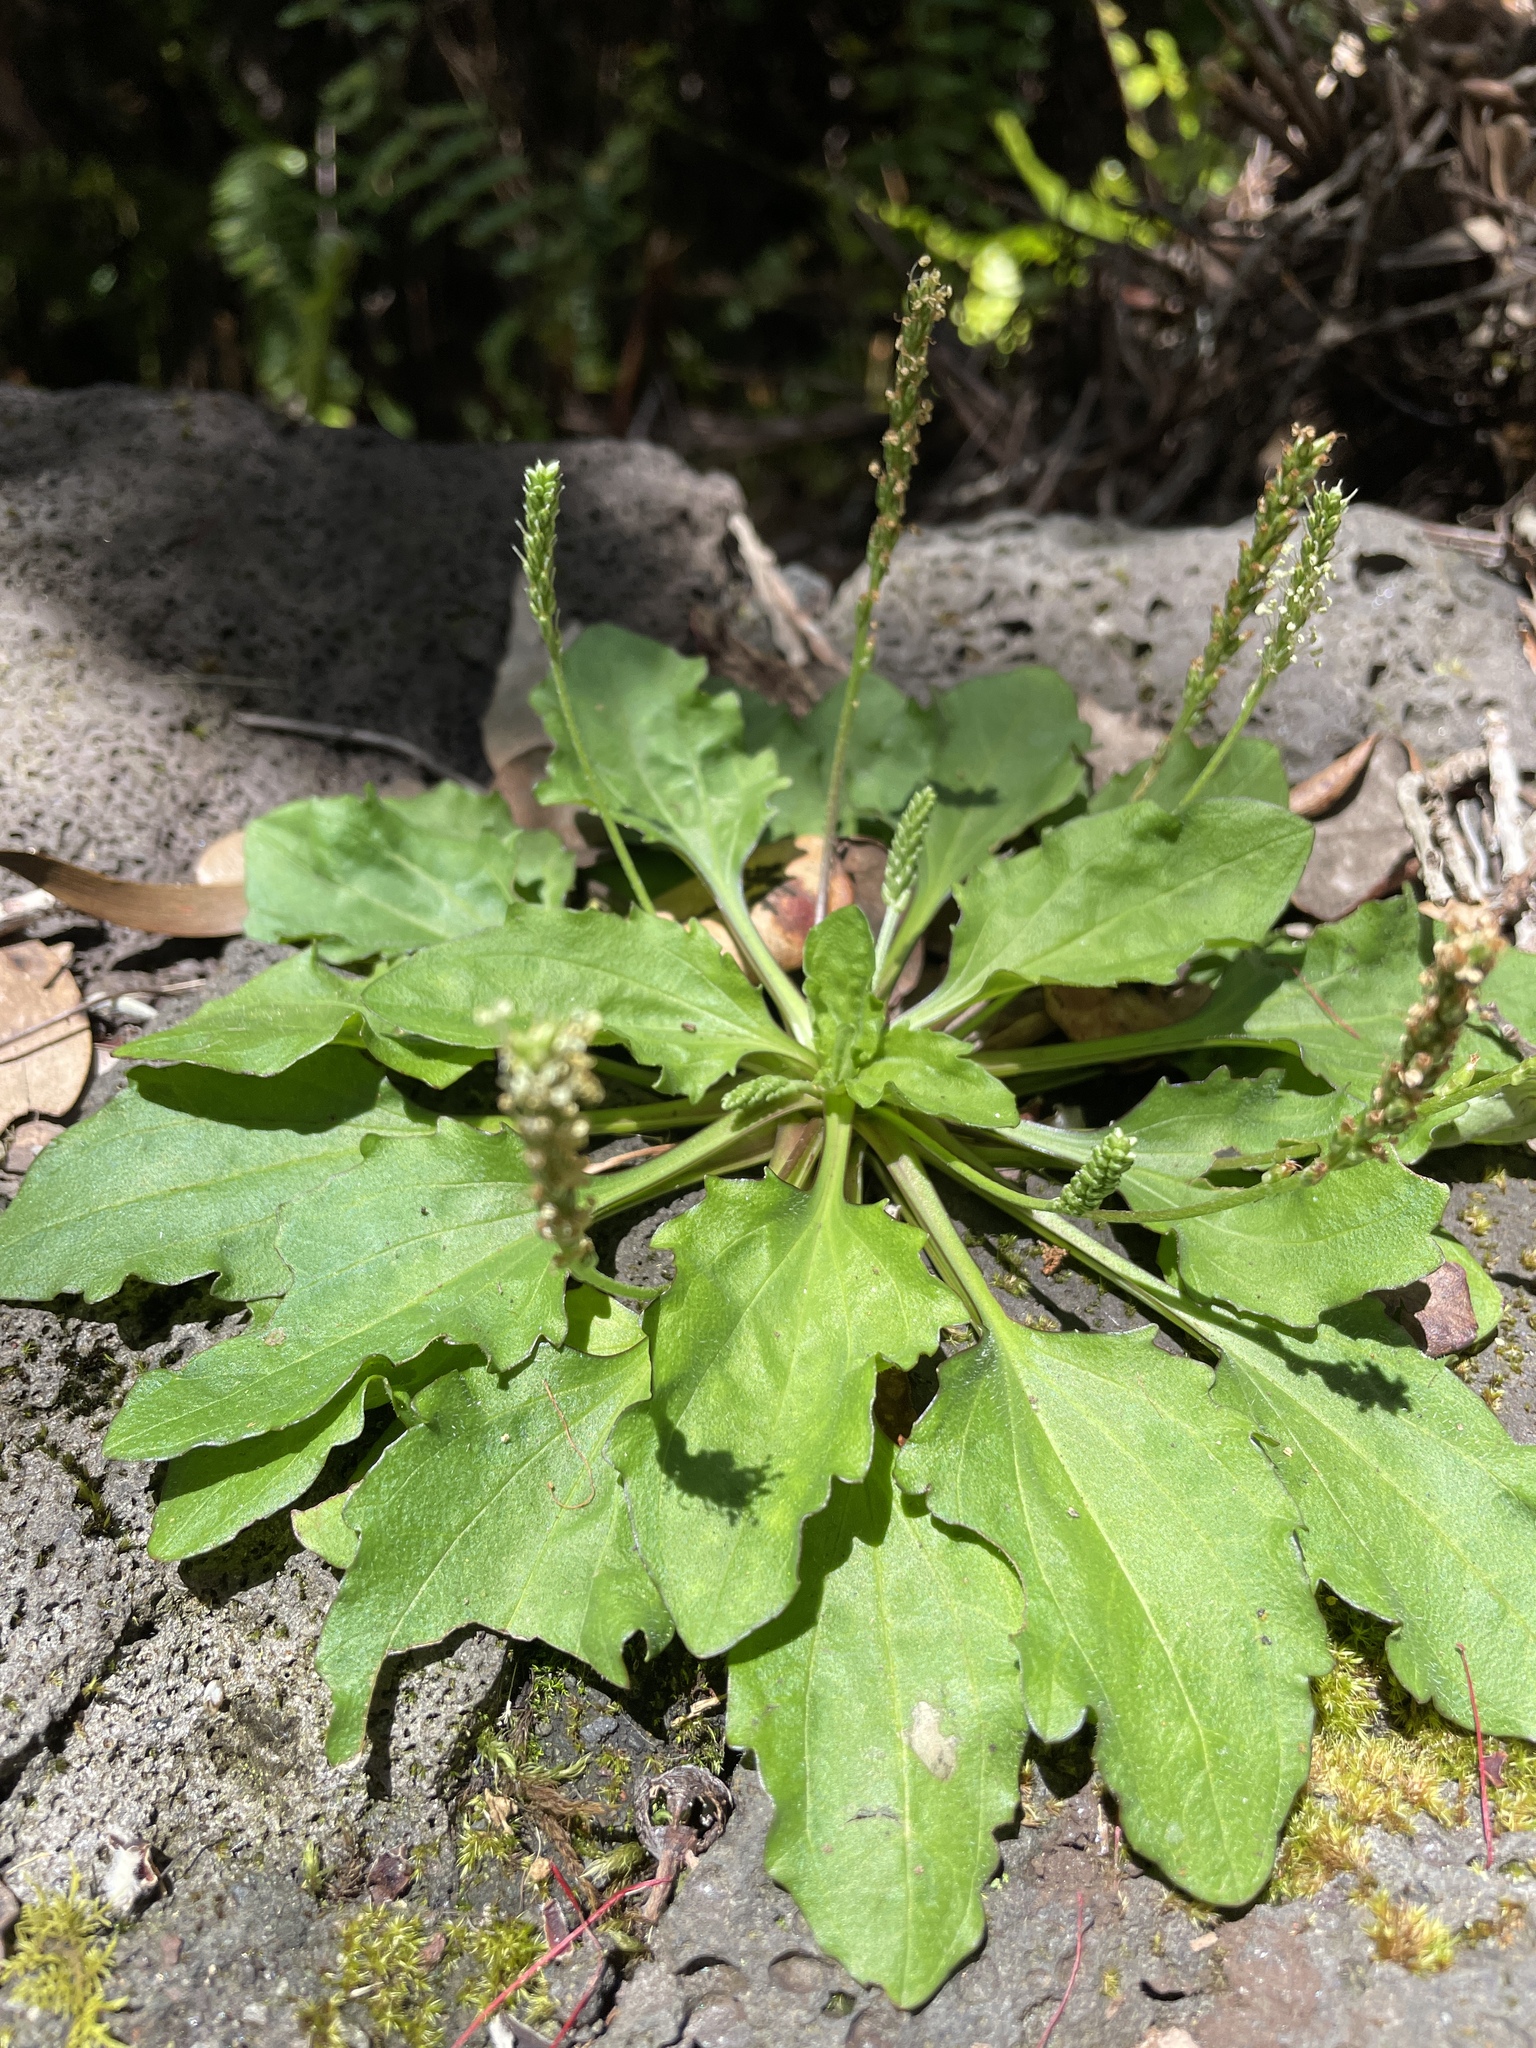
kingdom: Plantae
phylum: Tracheophyta
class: Magnoliopsida
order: Lamiales
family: Plantaginaceae
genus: Plantago
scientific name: Plantago major
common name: Common plantain
